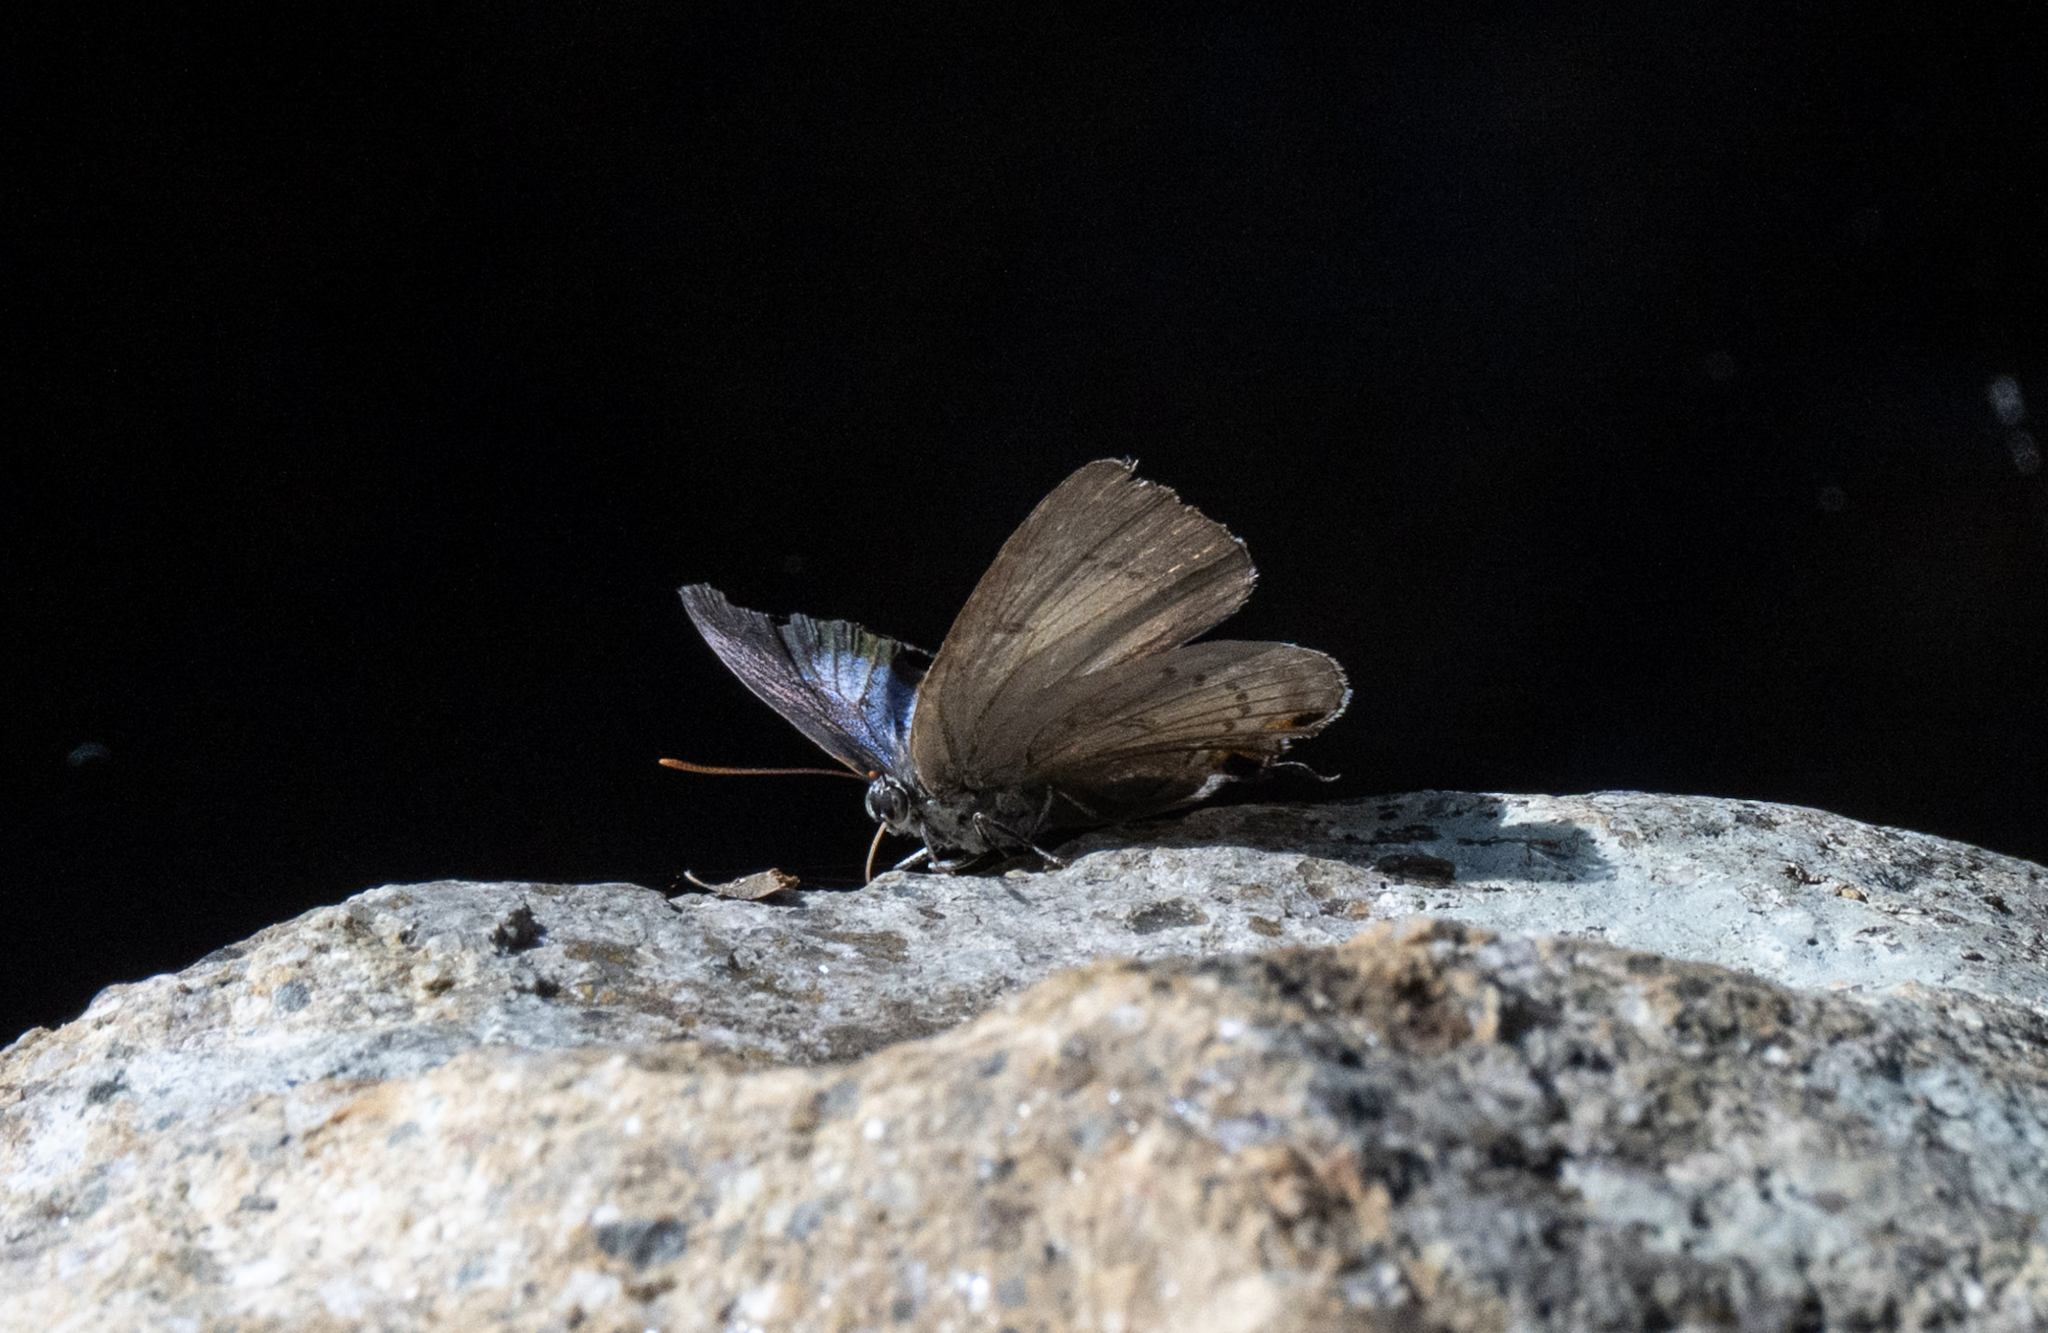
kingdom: Animalia
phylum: Arthropoda
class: Insecta
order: Lepidoptera
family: Lycaenidae
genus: Ancema
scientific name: Ancema ctesia
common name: Bi-spot royal
